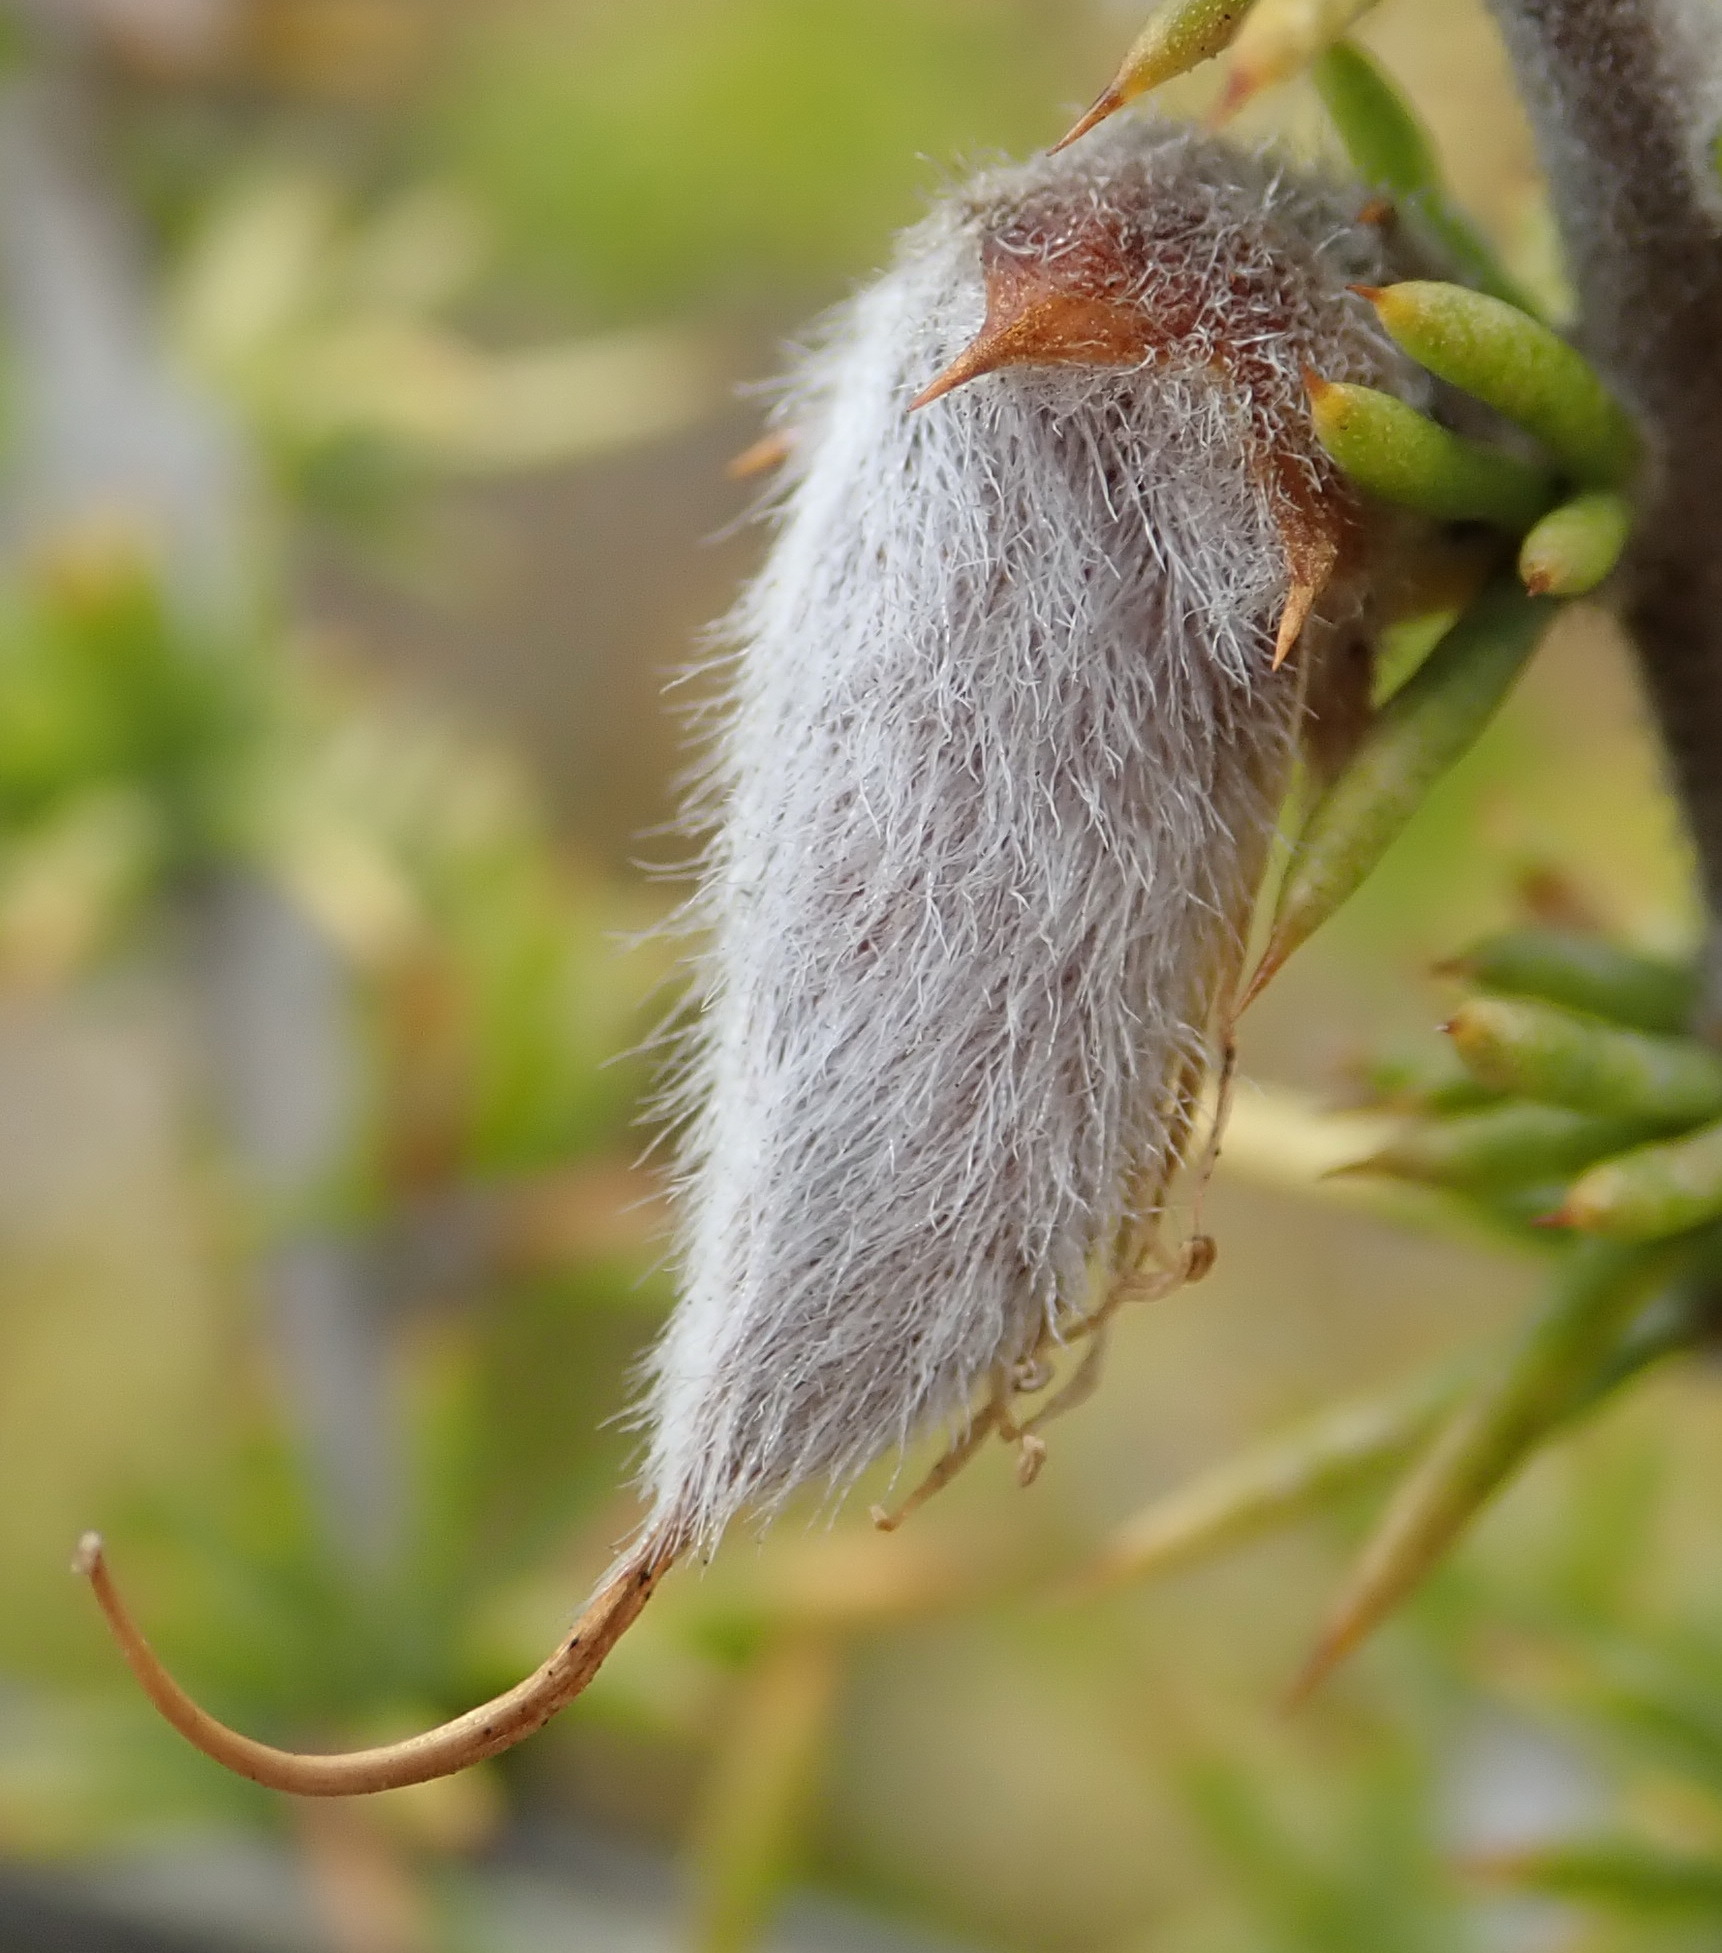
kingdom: Plantae
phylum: Tracheophyta
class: Magnoliopsida
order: Fabales
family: Fabaceae
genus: Aspalathus
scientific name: Aspalathus hirta
